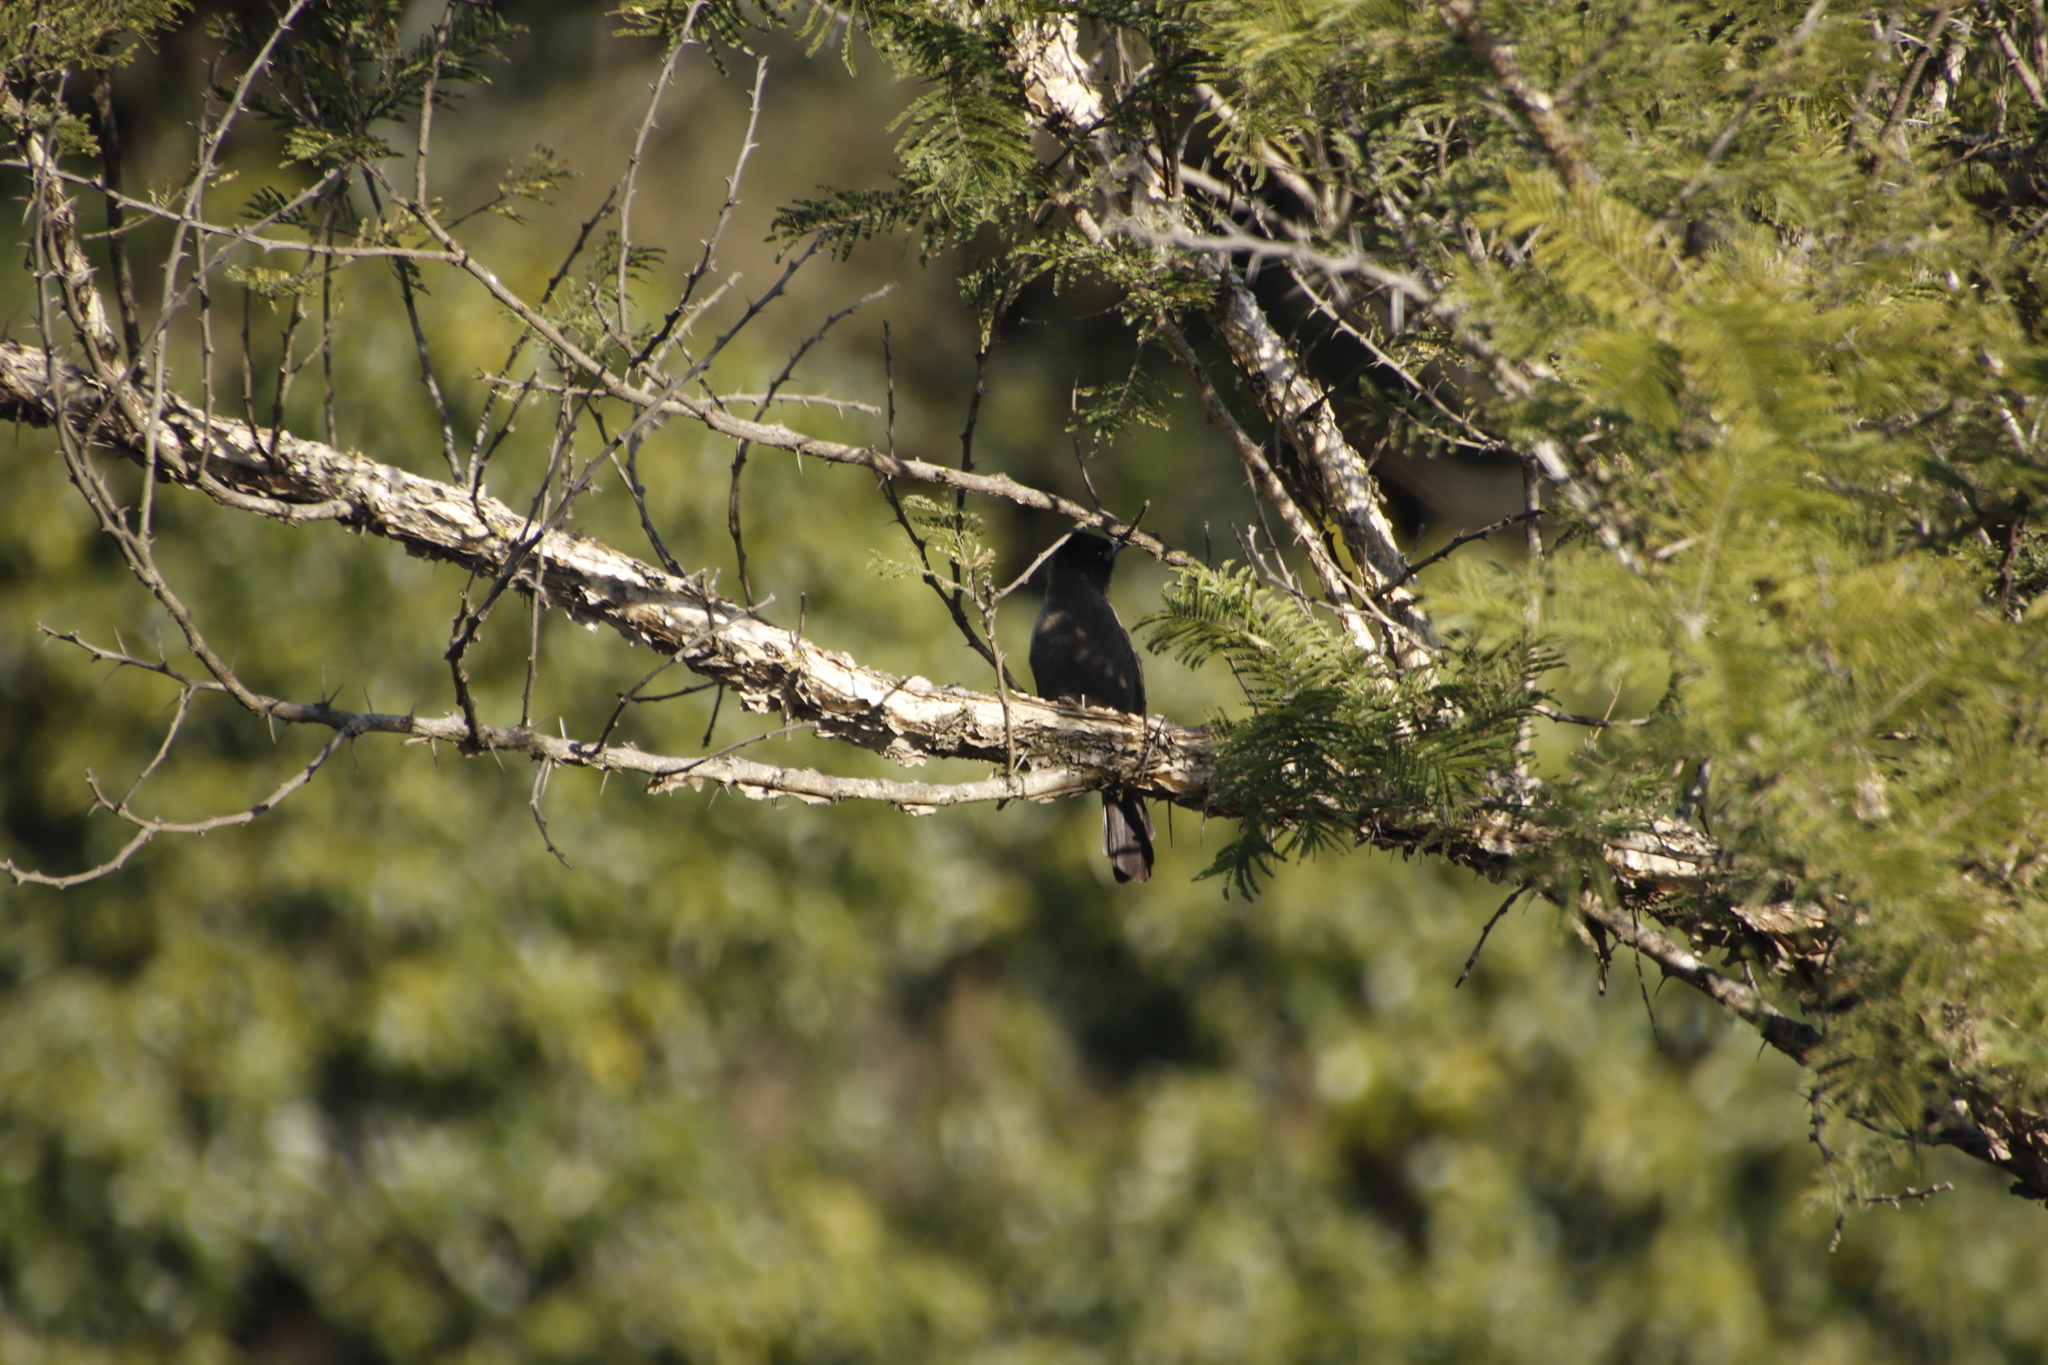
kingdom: Animalia
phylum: Chordata
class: Aves
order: Passeriformes
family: Muscicapidae
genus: Melaenornis
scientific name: Melaenornis pammelaina
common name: Southern black flycatcher
